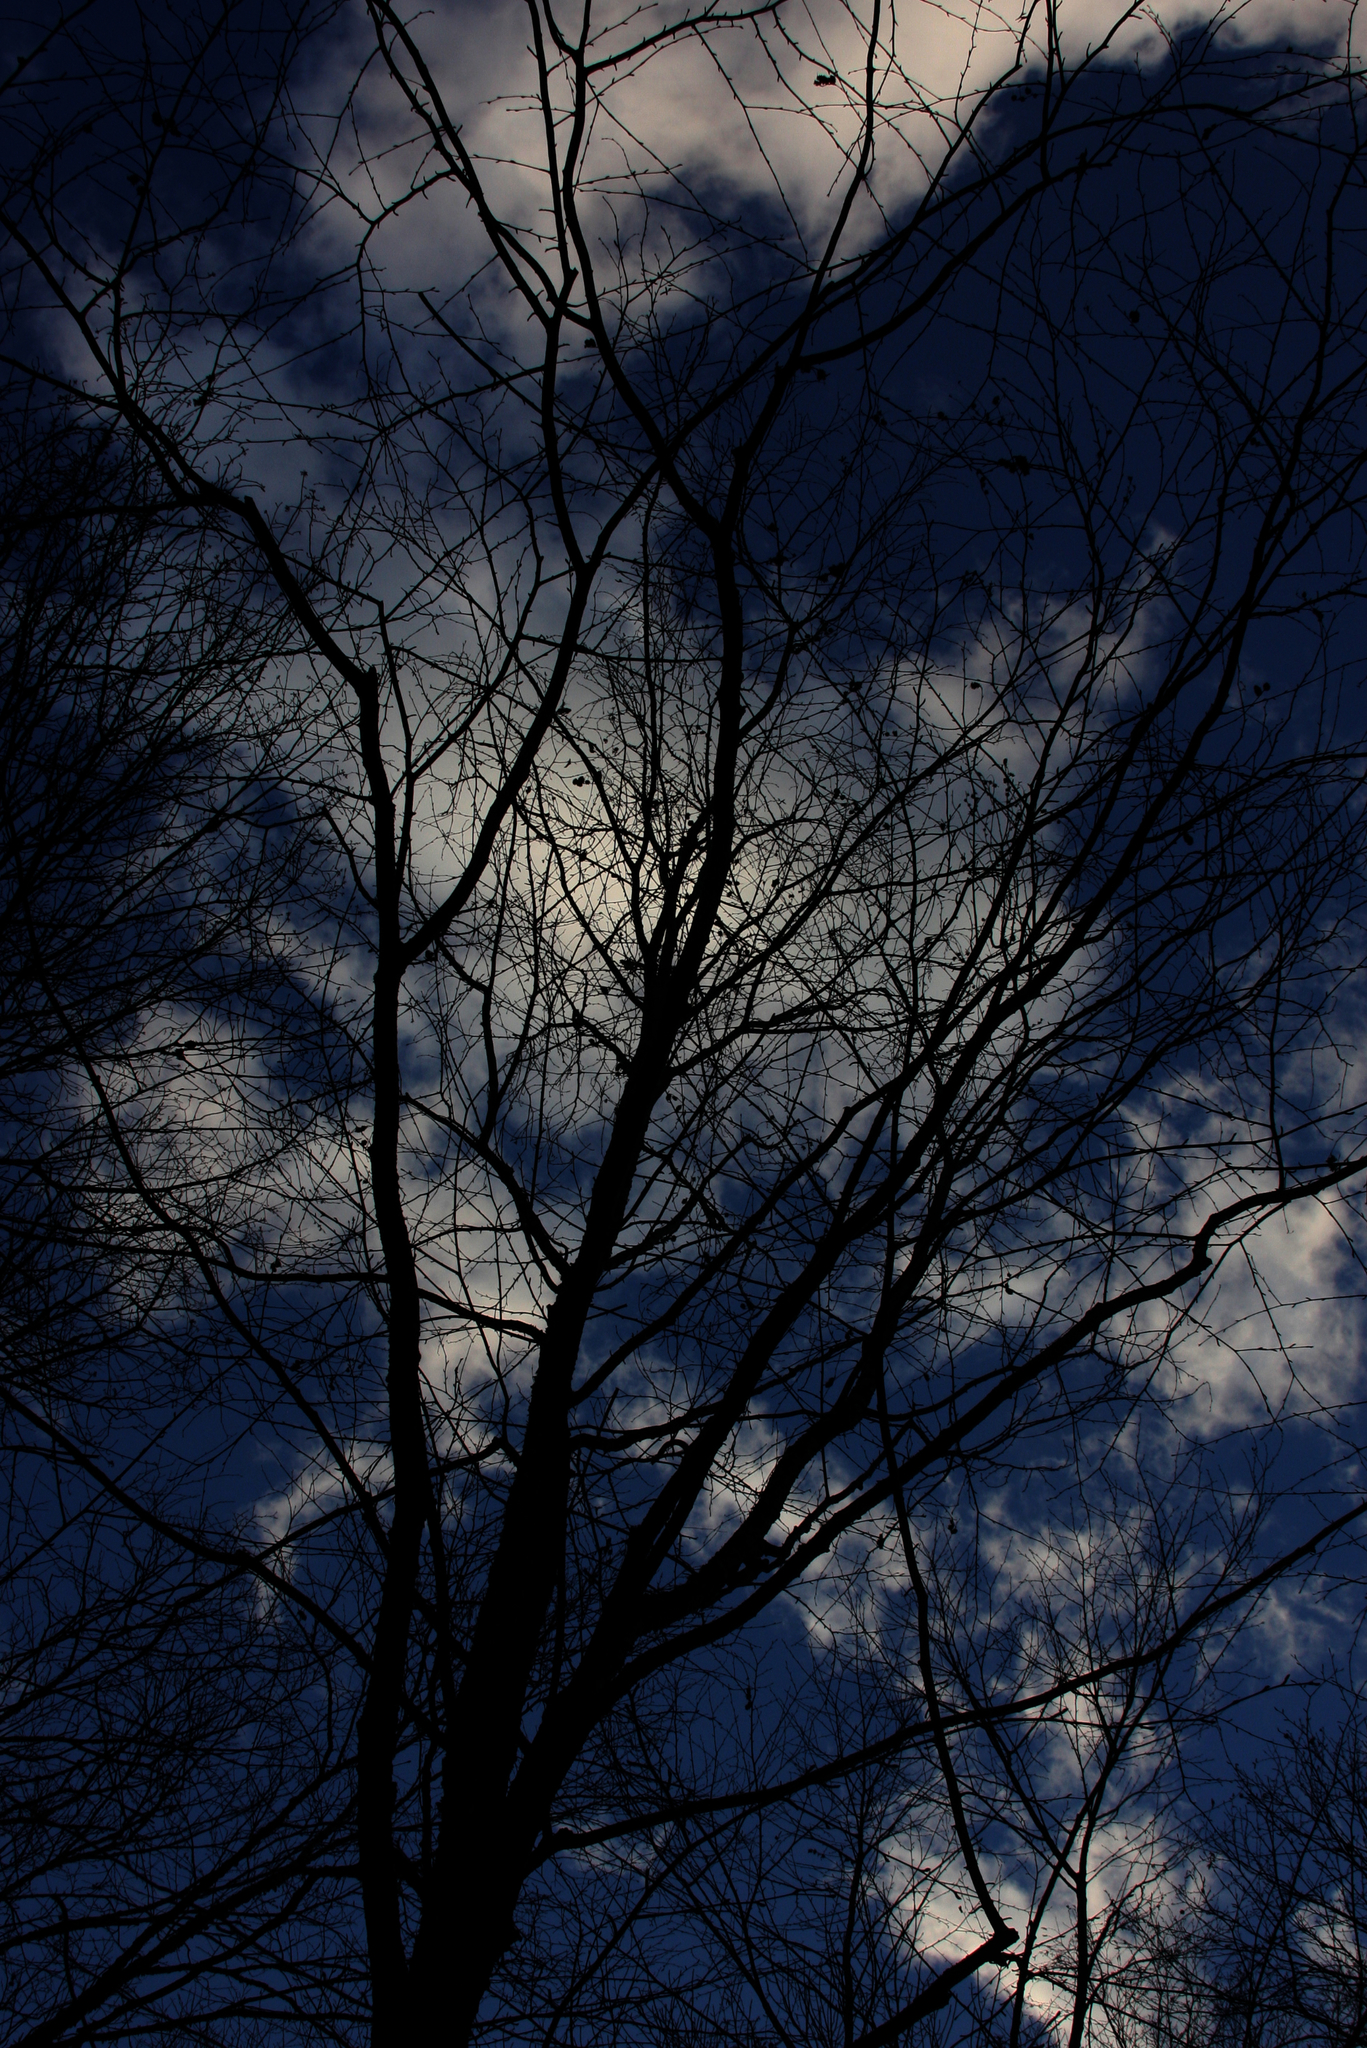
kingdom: Plantae
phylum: Tracheophyta
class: Magnoliopsida
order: Fagales
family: Betulaceae
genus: Betula
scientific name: Betula alleghaniensis
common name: Yellow birch
